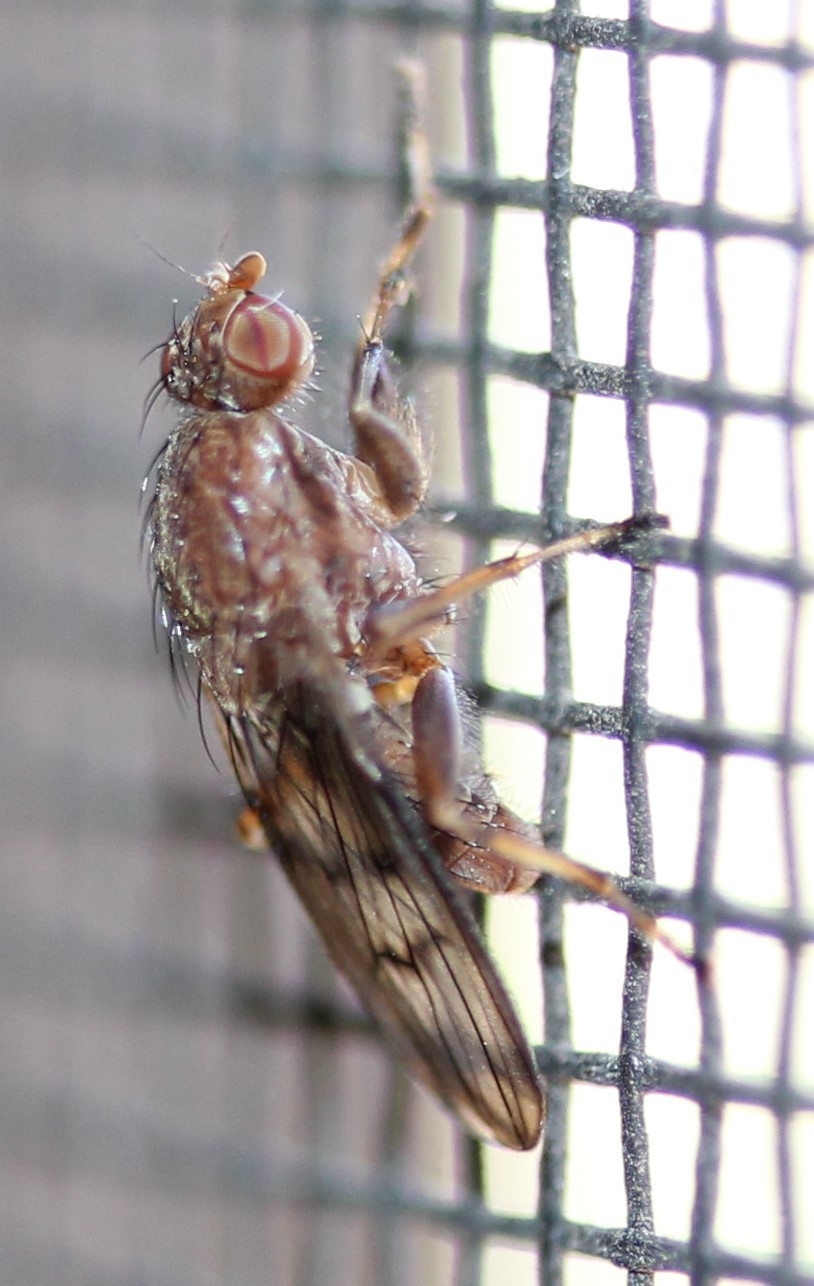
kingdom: Animalia
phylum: Arthropoda
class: Insecta
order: Diptera
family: Heleomyzidae
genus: Suillia
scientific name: Suillia barberi
